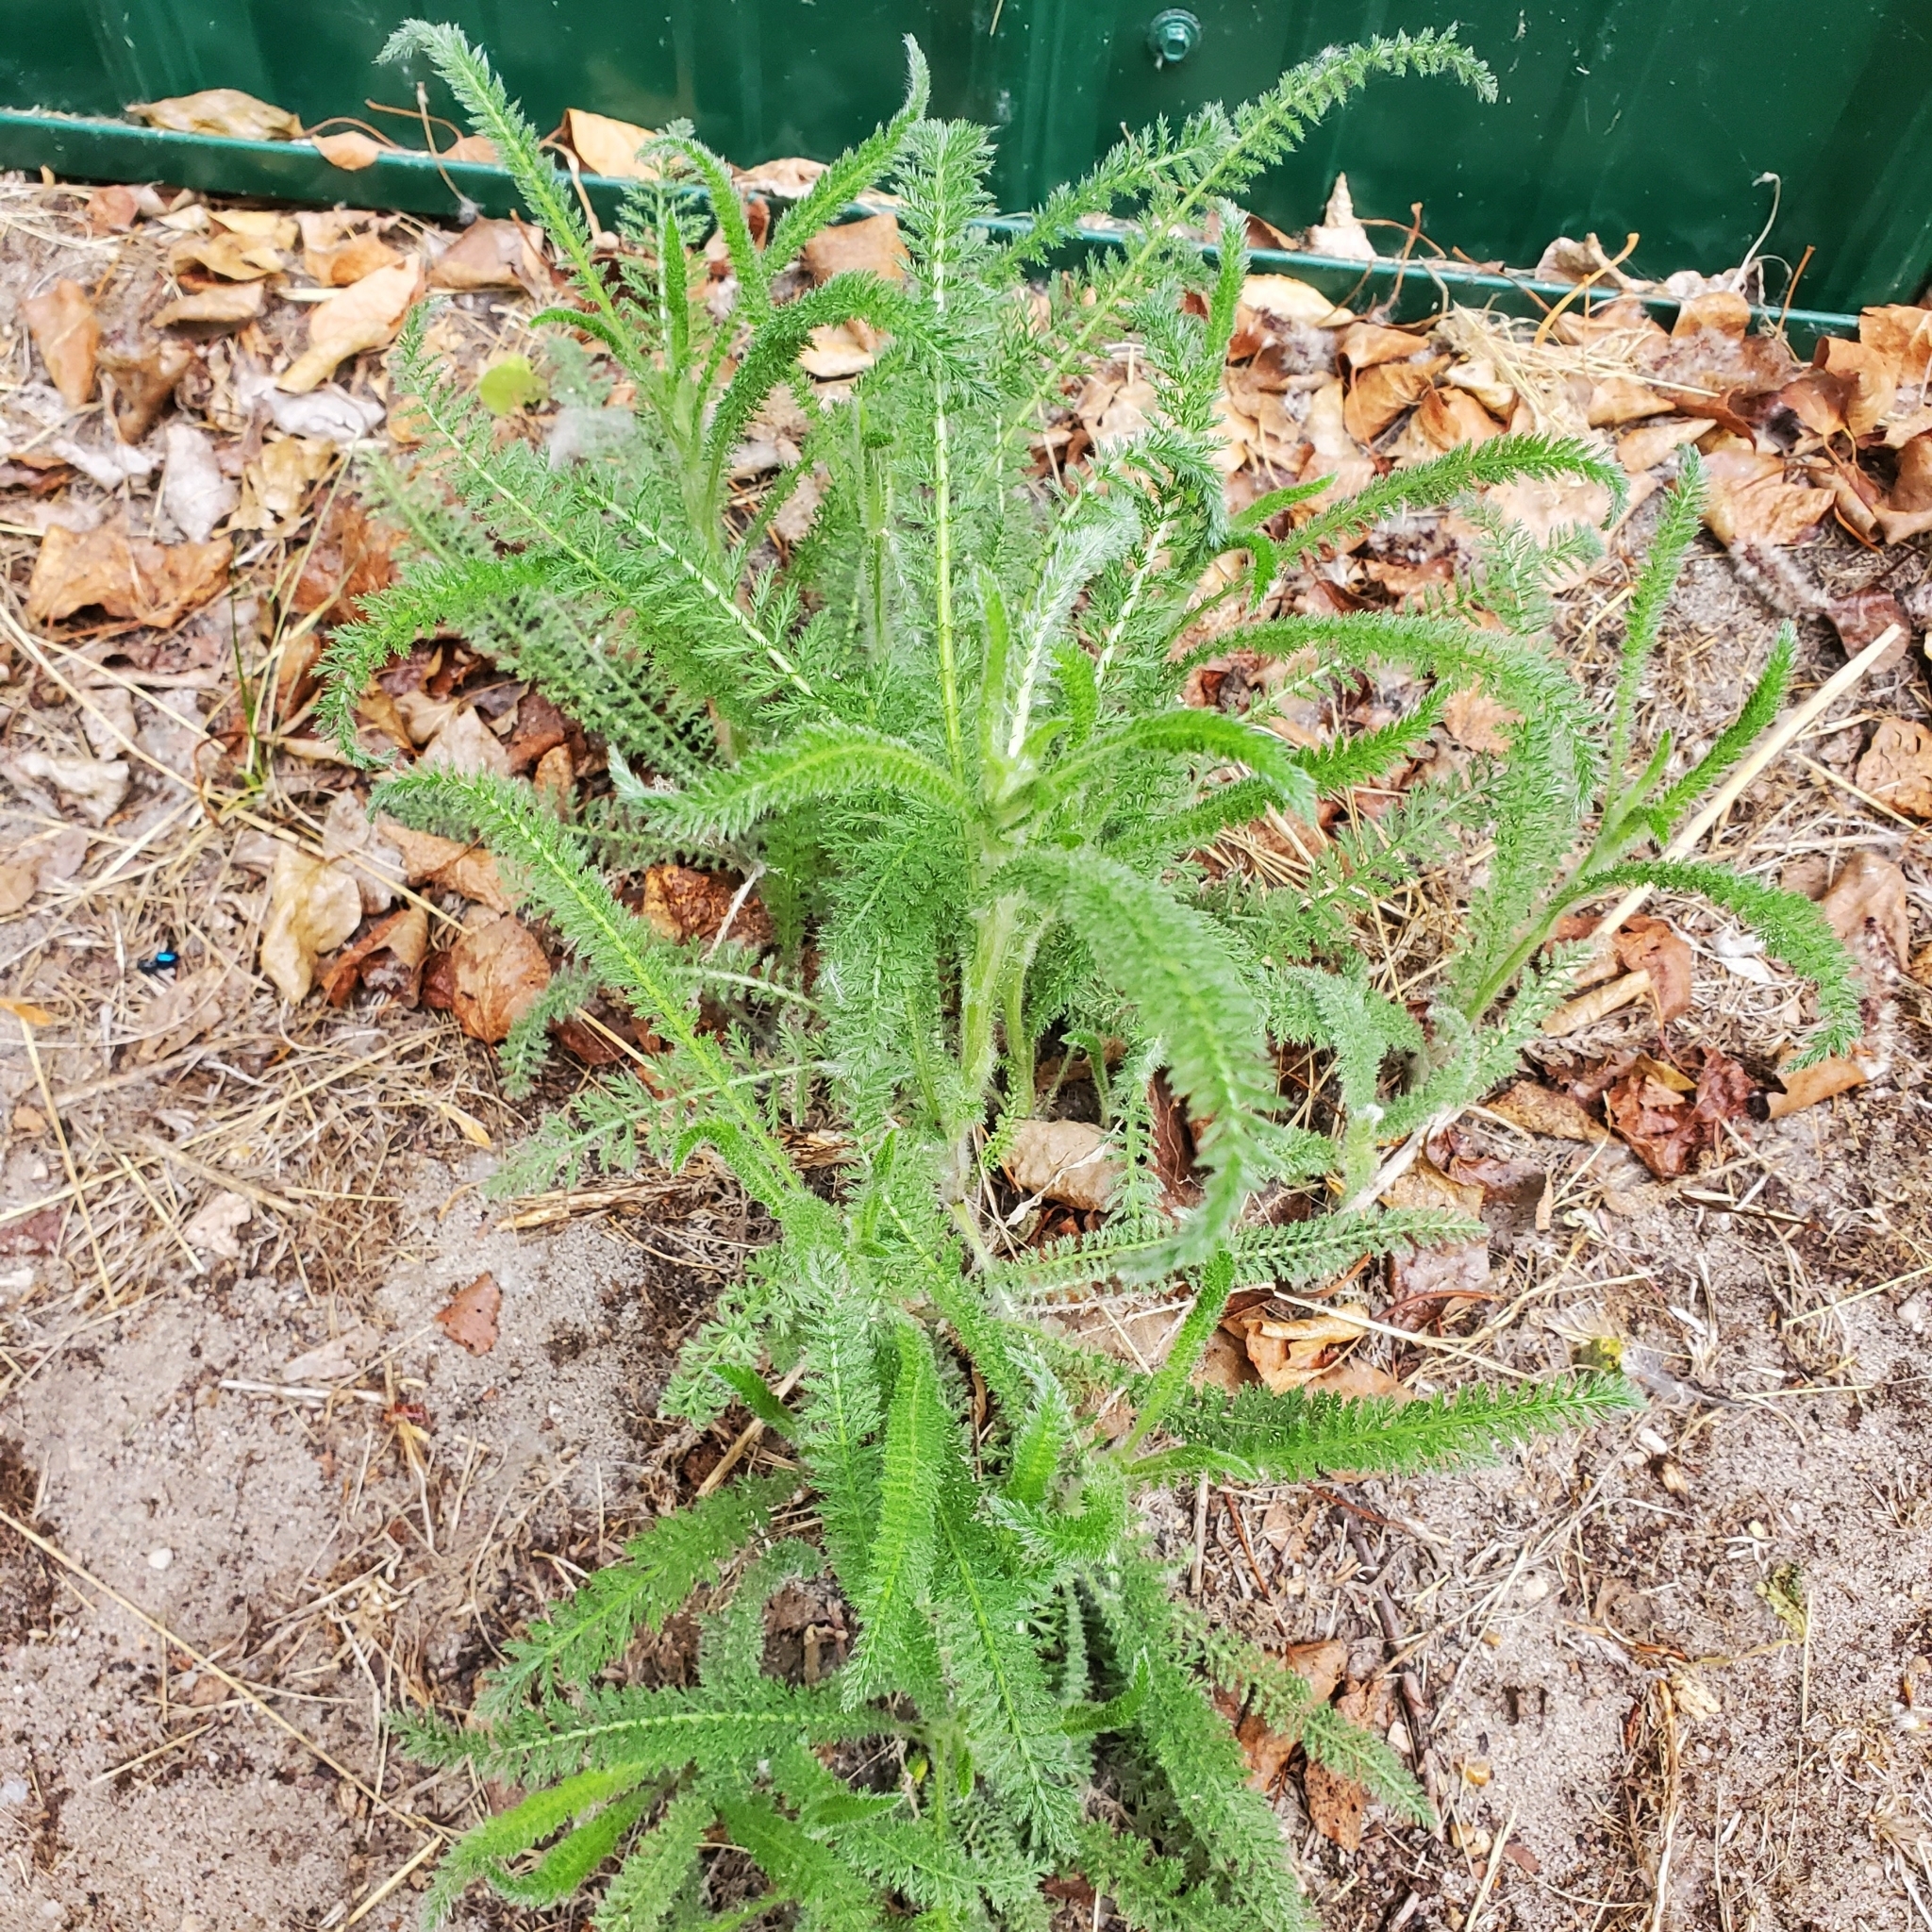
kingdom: Plantae
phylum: Tracheophyta
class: Magnoliopsida
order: Asterales
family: Asteraceae
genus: Achillea
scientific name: Achillea millefolium
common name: Yarrow
